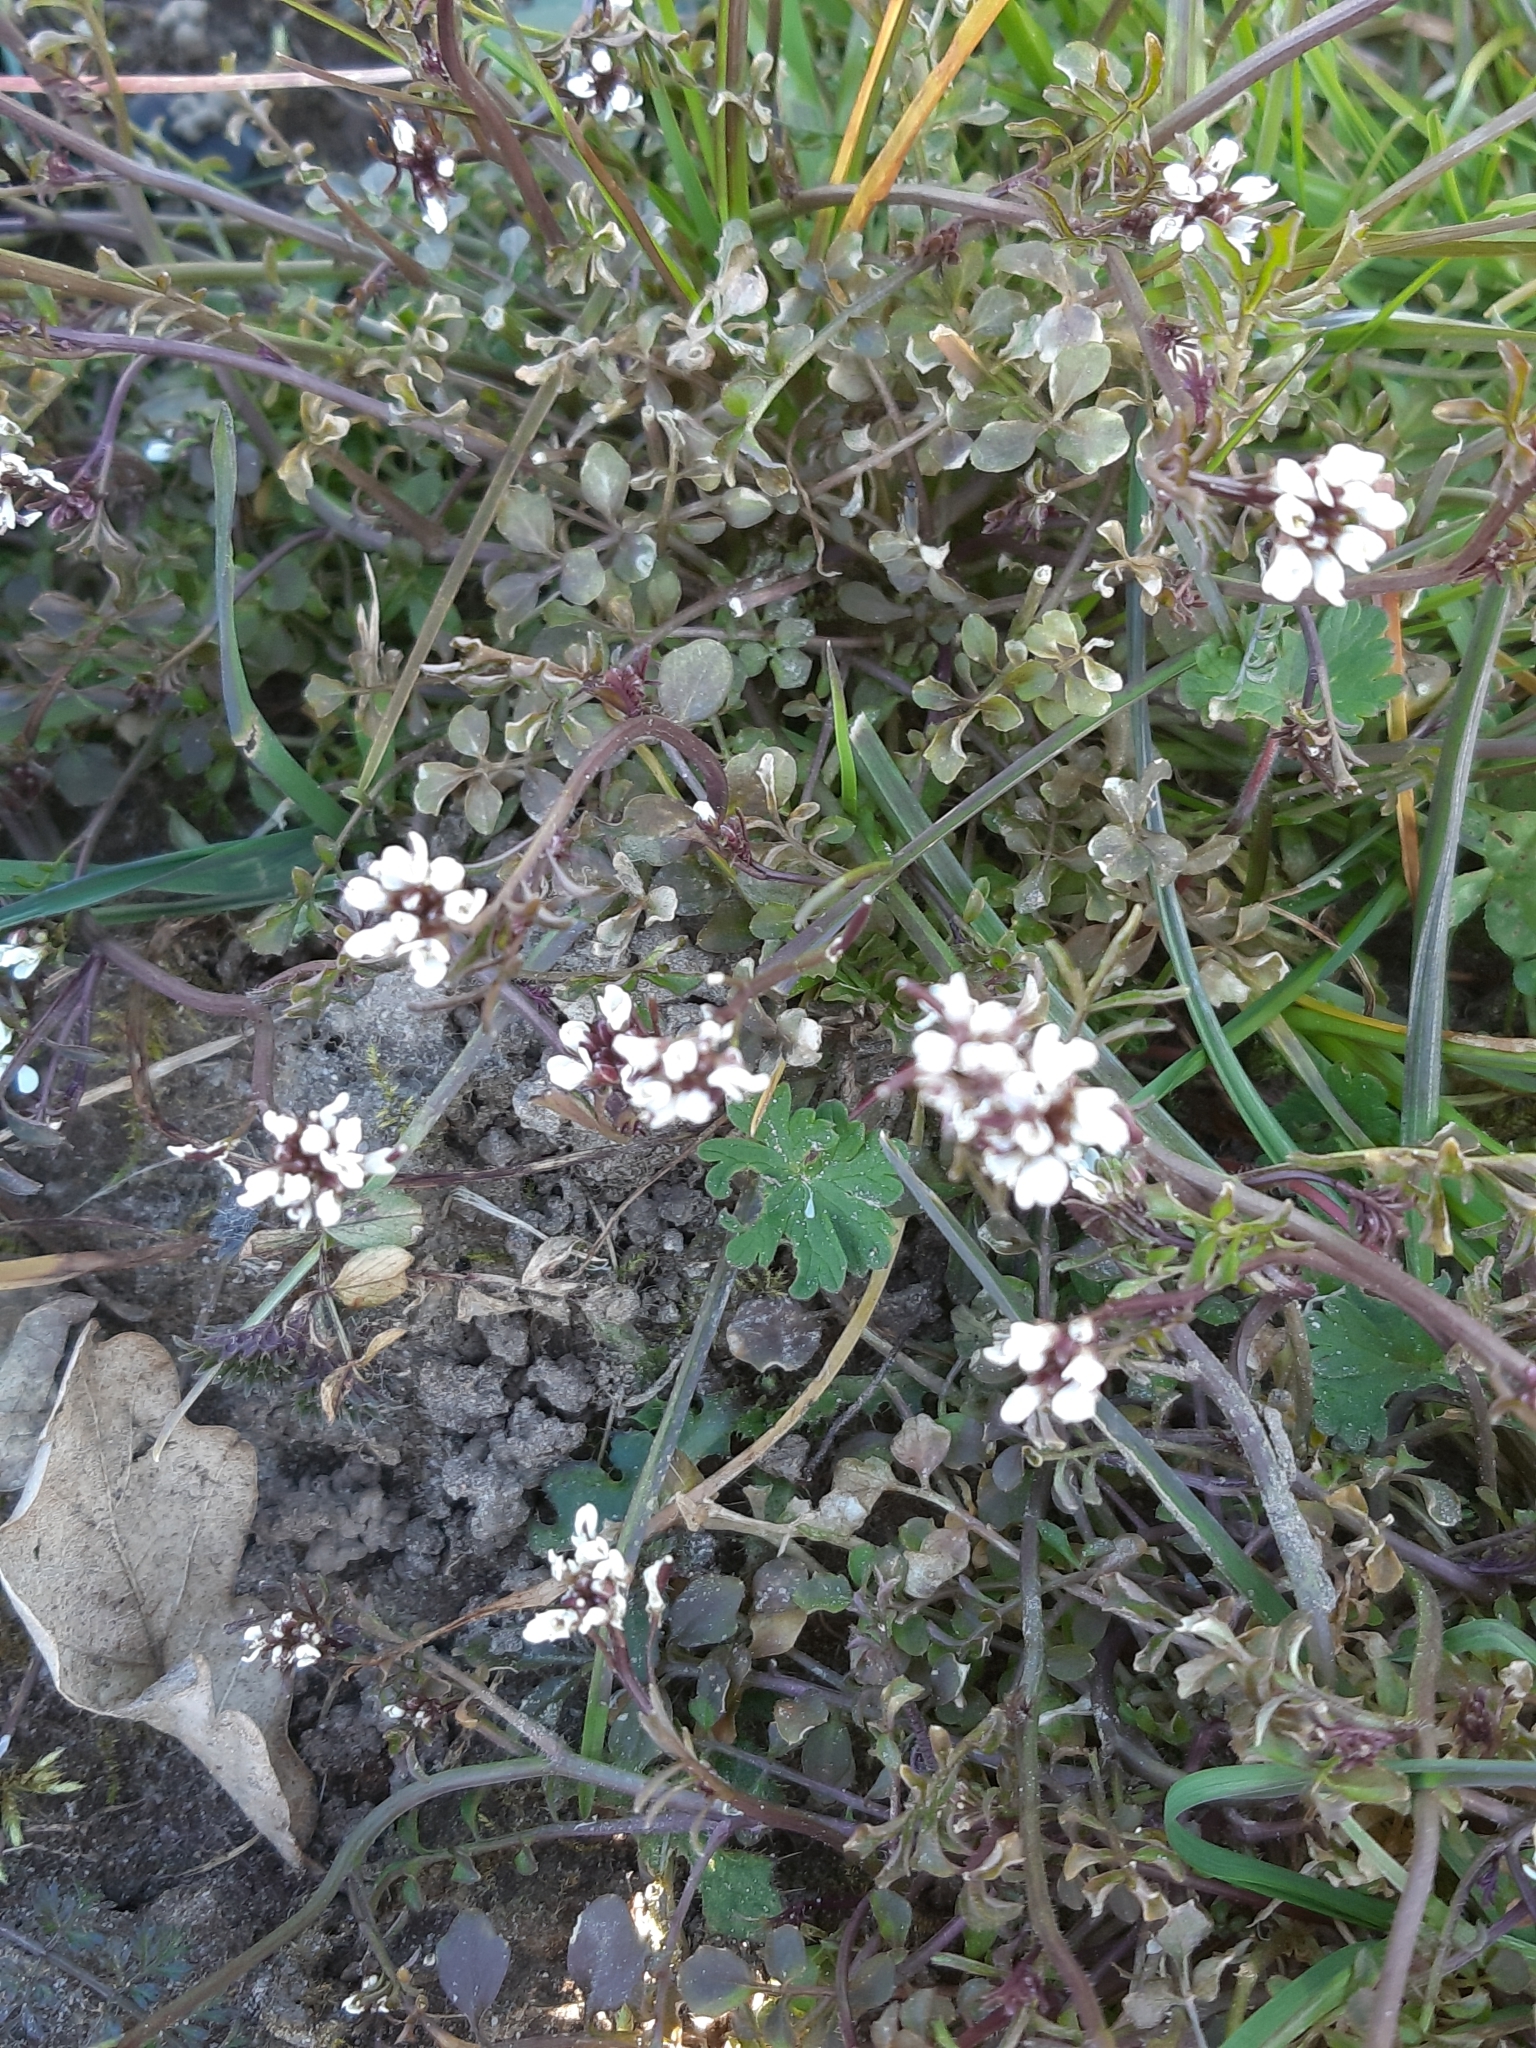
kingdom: Plantae
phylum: Tracheophyta
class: Magnoliopsida
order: Brassicales
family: Brassicaceae
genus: Cardamine
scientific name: Cardamine hirsuta
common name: Hairy bittercress
